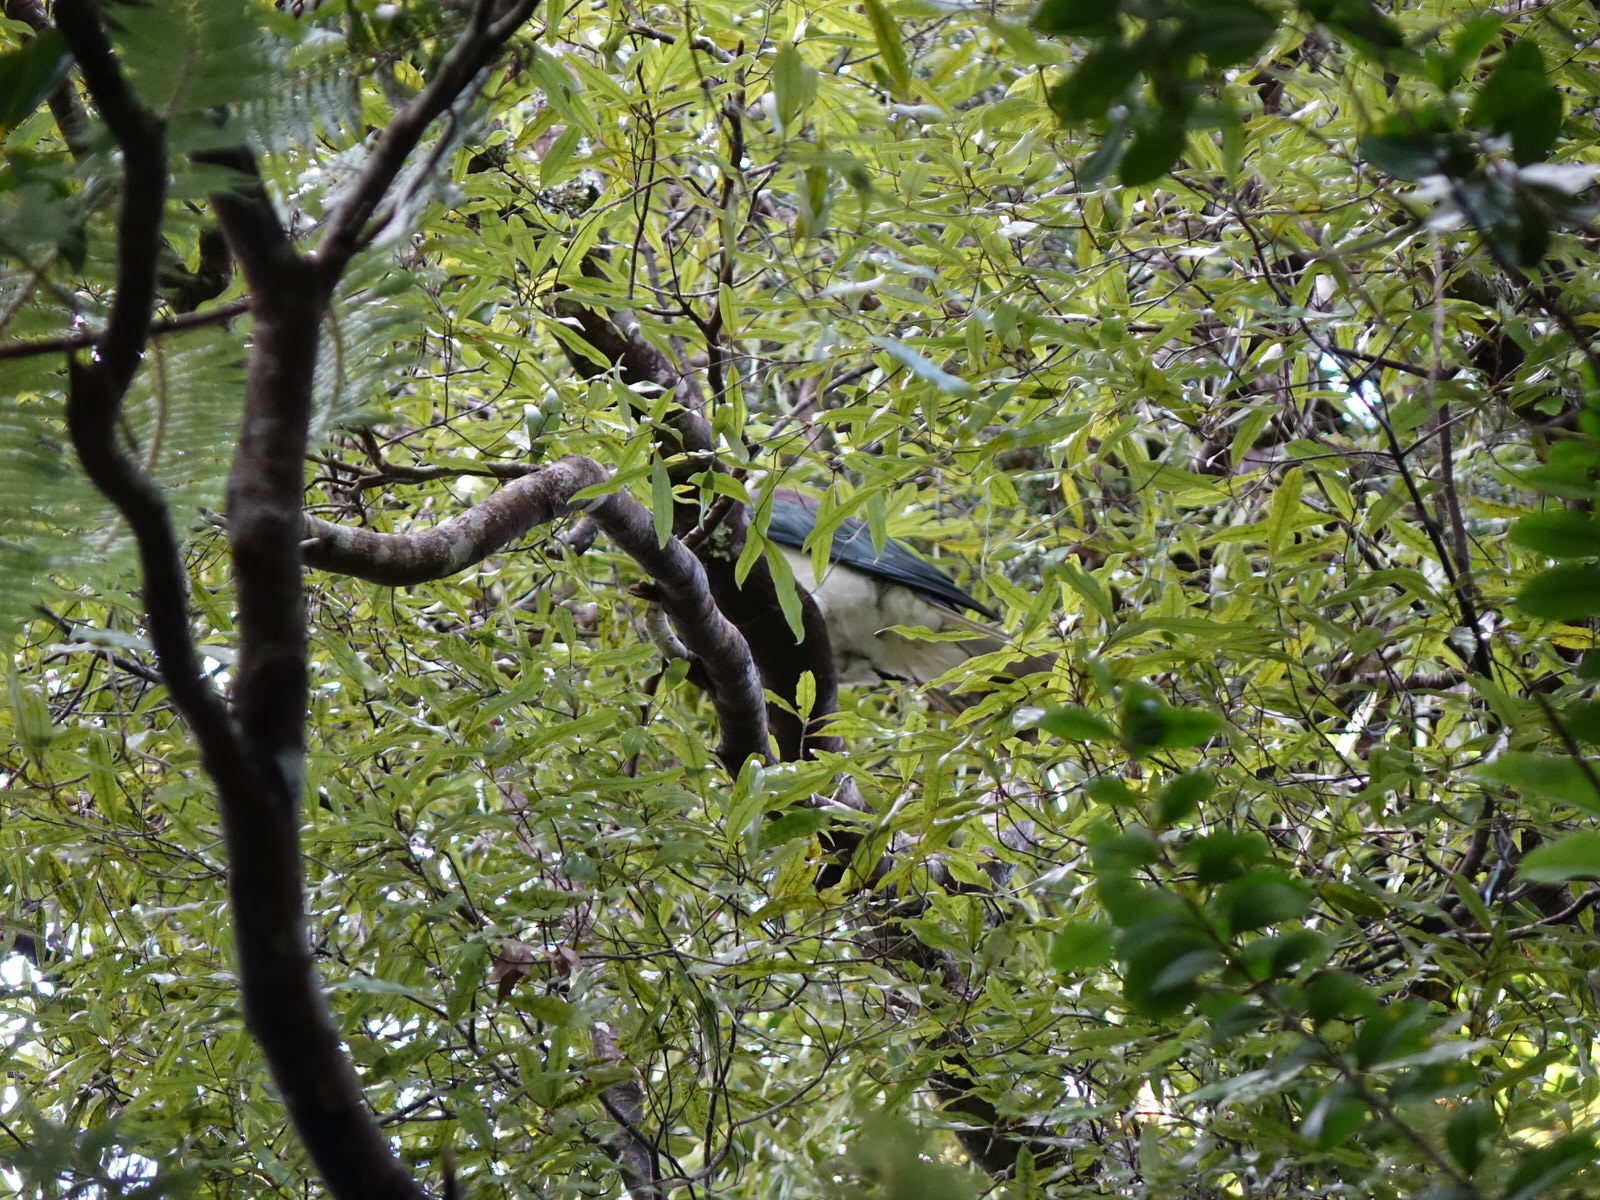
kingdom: Animalia
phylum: Chordata
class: Aves
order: Columbiformes
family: Columbidae
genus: Hemiphaga
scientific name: Hemiphaga novaeseelandiae
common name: New zealand pigeon
